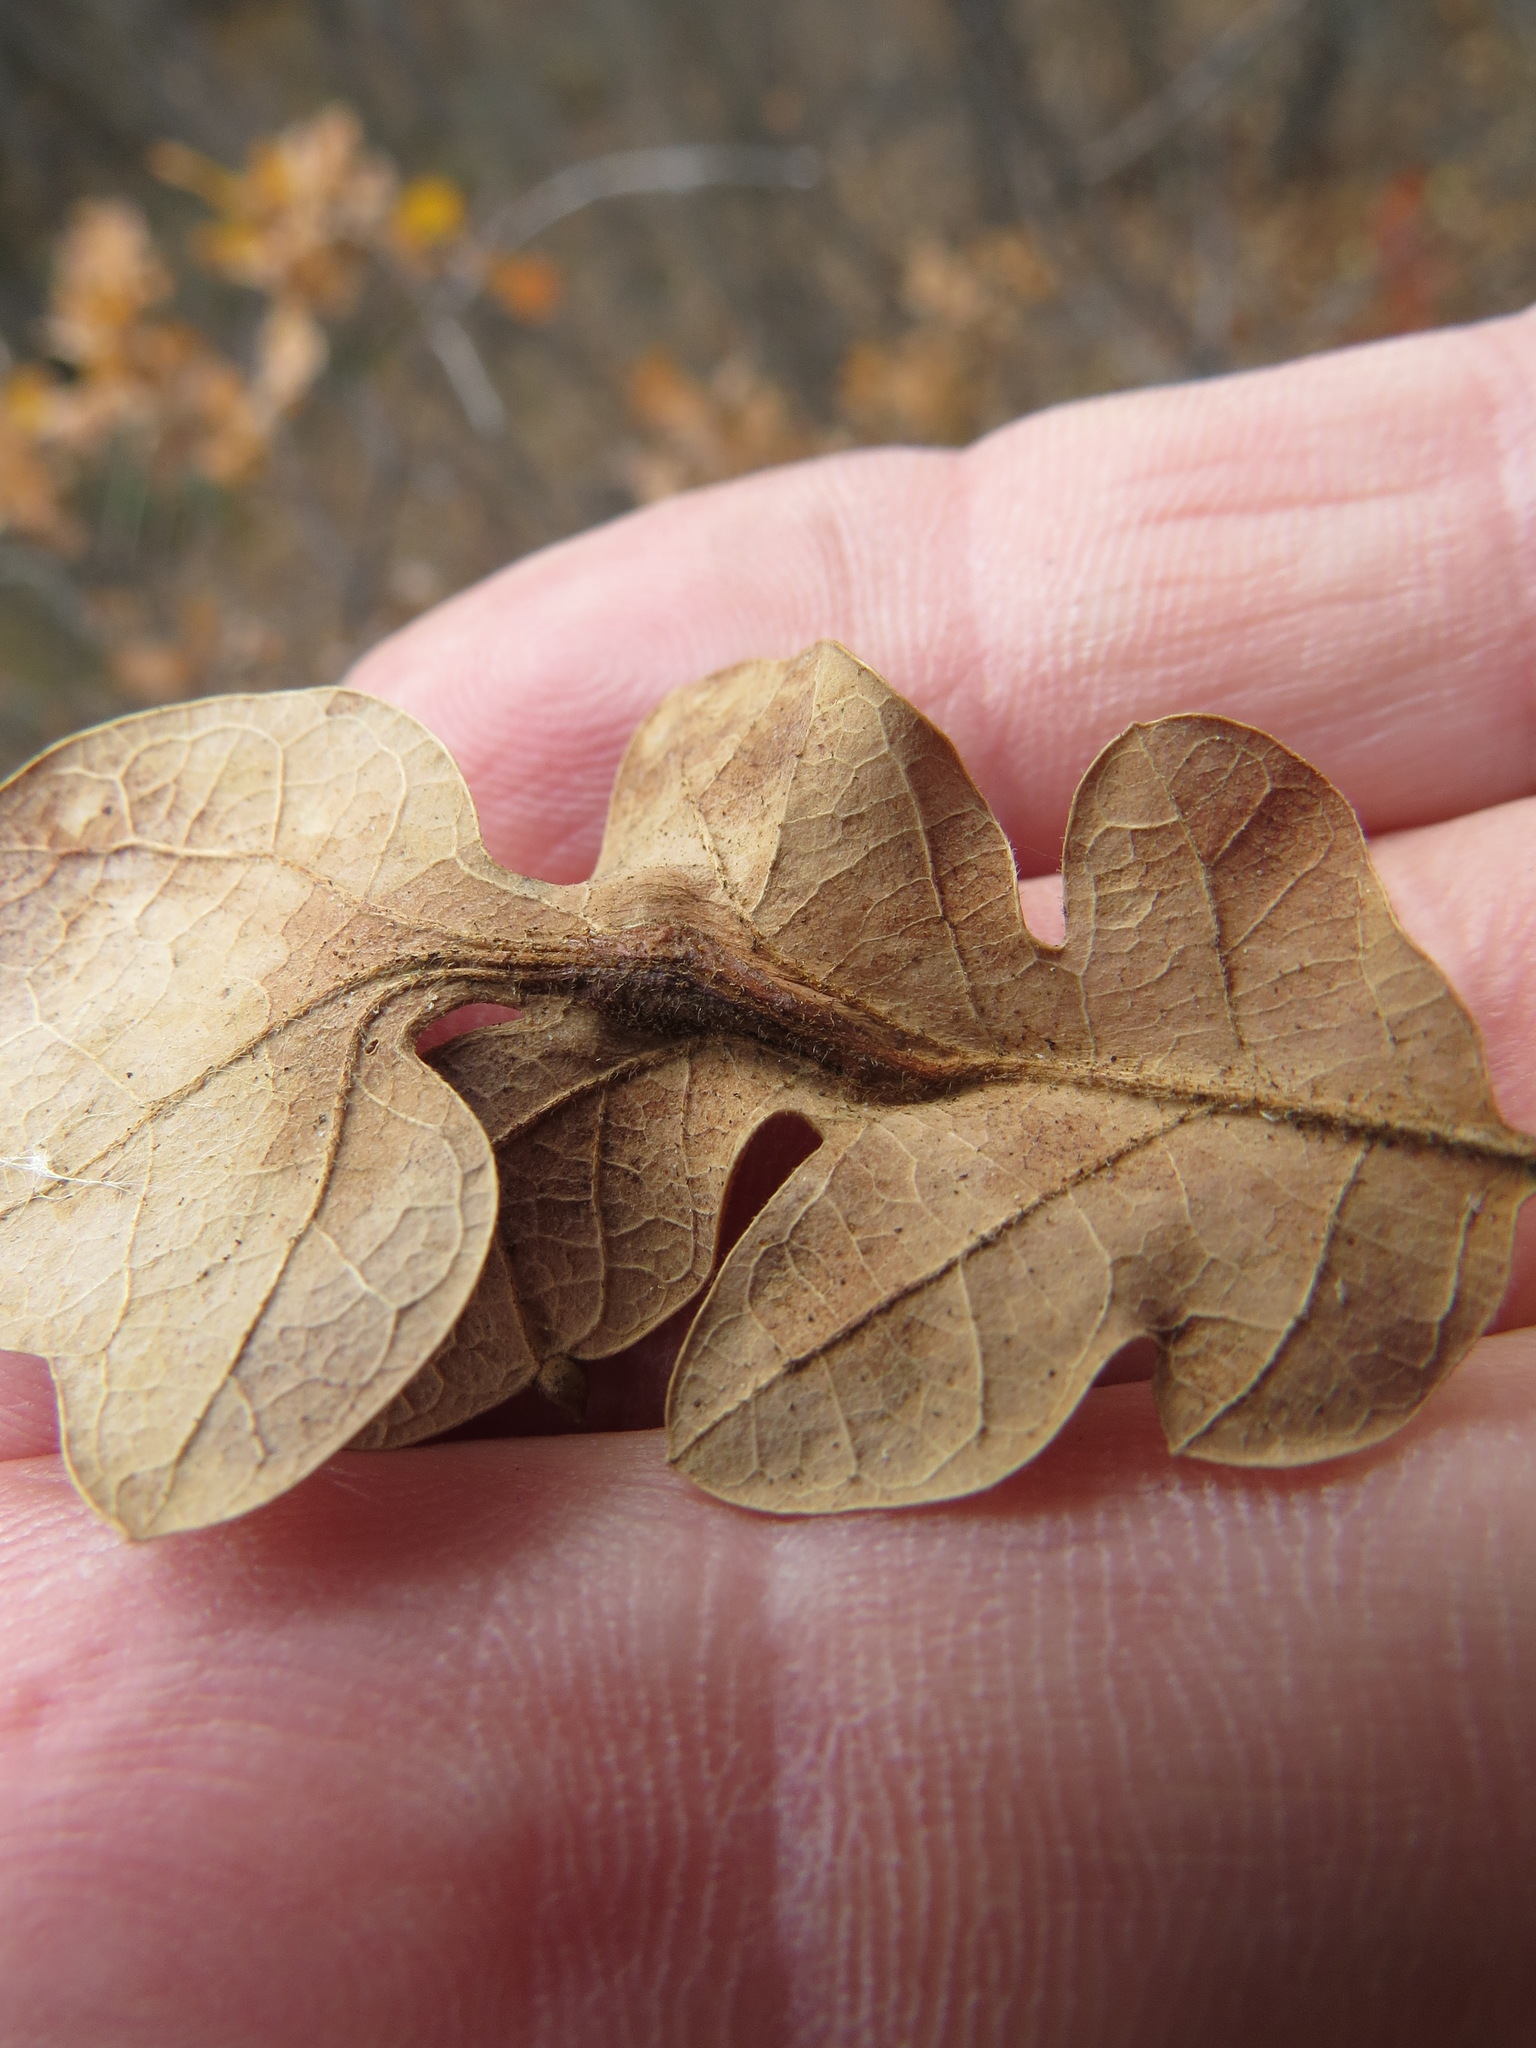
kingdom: Animalia
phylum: Arthropoda
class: Insecta
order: Hymenoptera
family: Cynipidae
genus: Andricus
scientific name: Andricus
